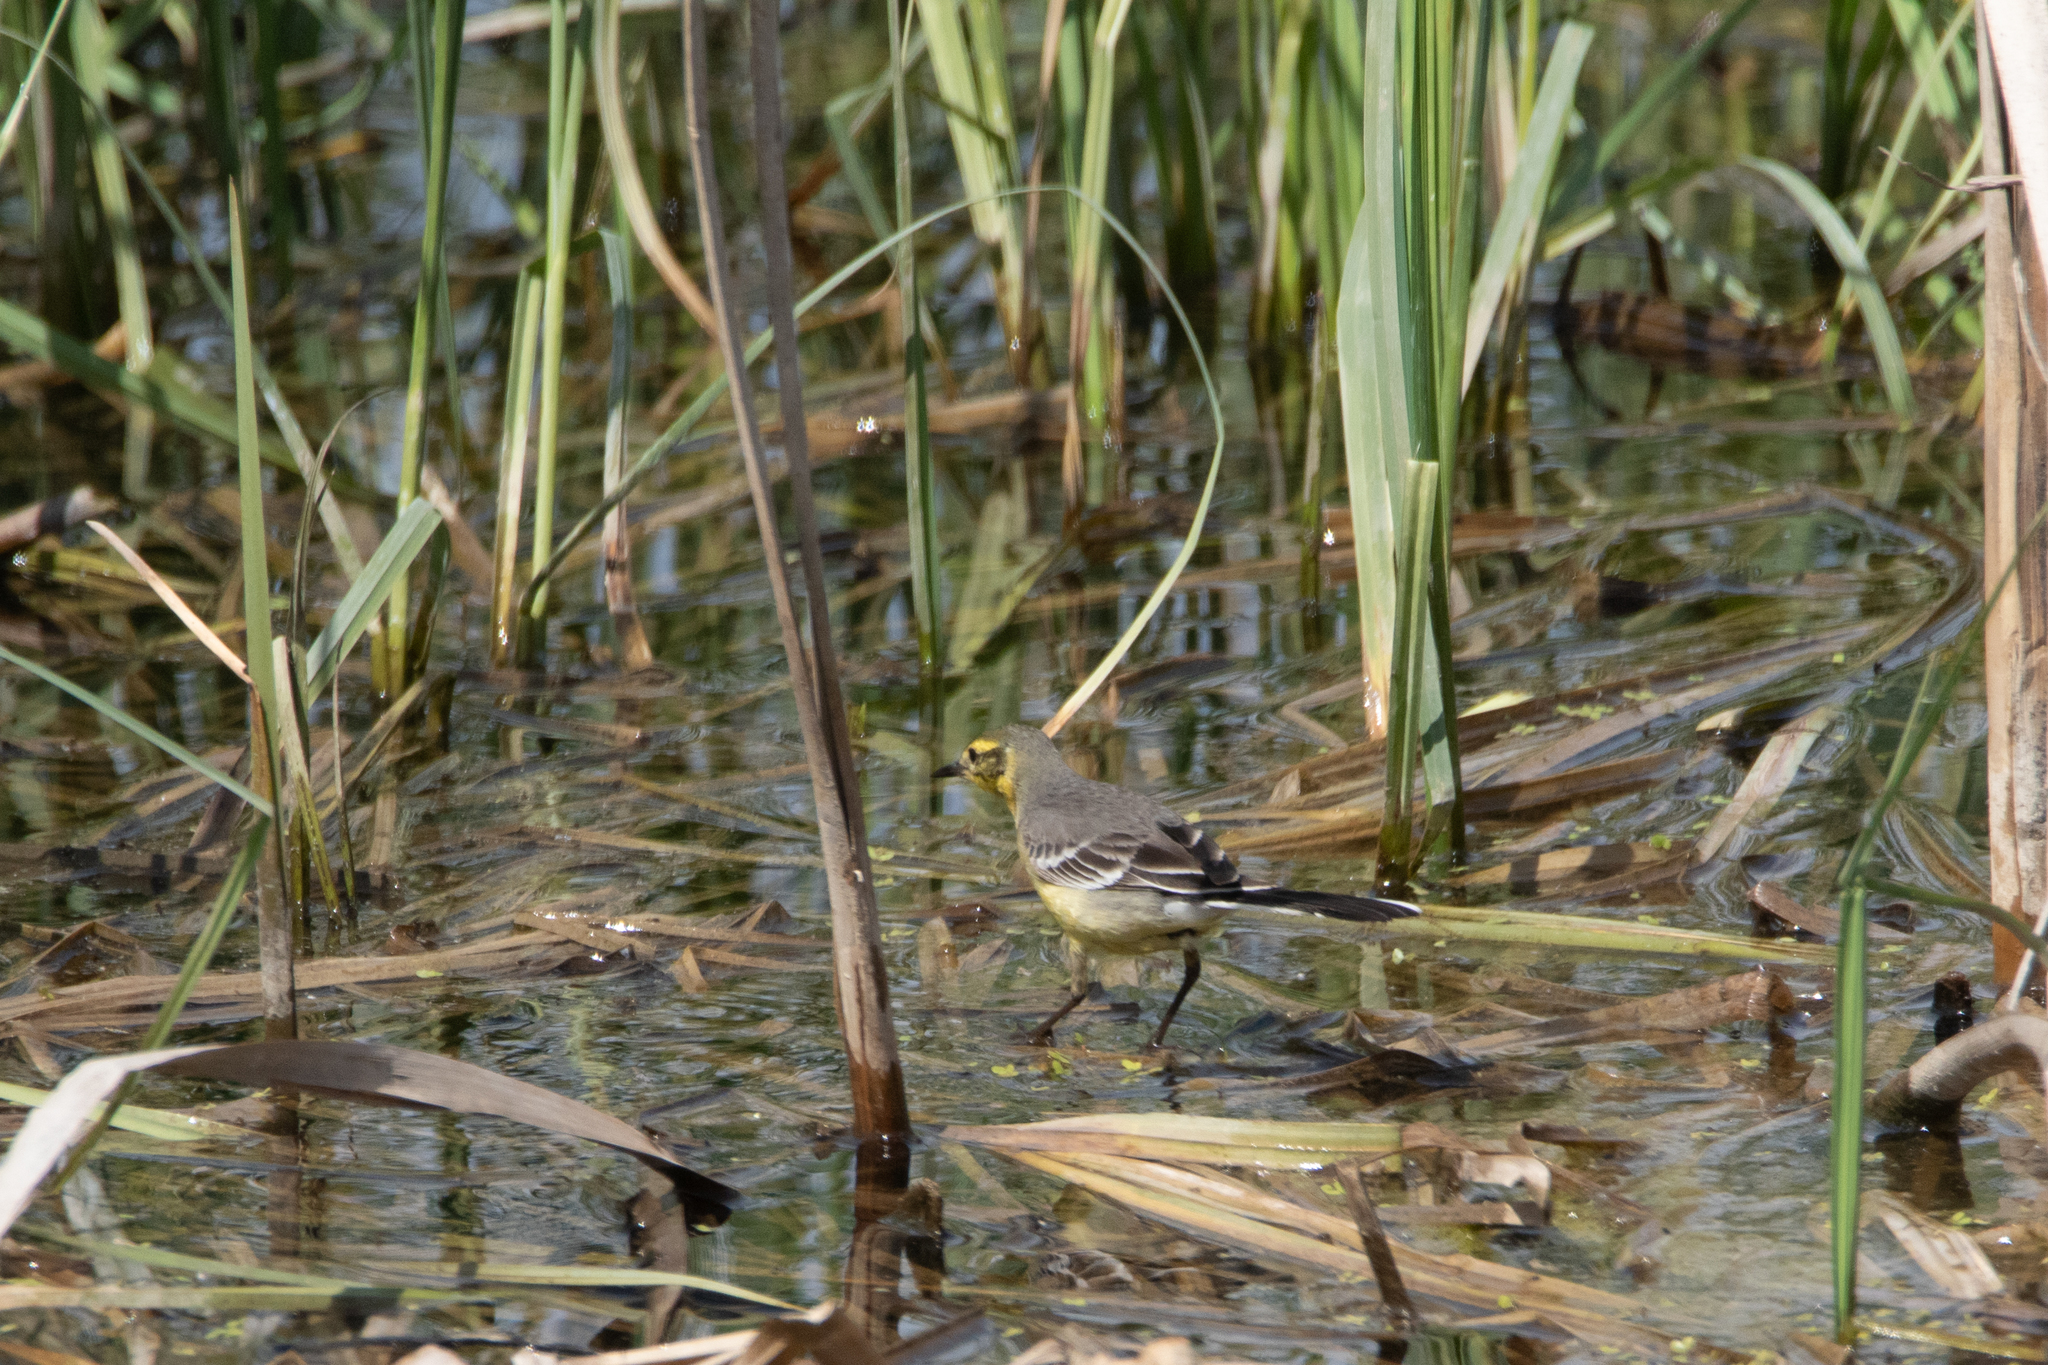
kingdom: Animalia
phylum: Chordata
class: Aves
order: Passeriformes
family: Motacillidae
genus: Motacilla
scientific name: Motacilla citreola
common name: Citrine wagtail
